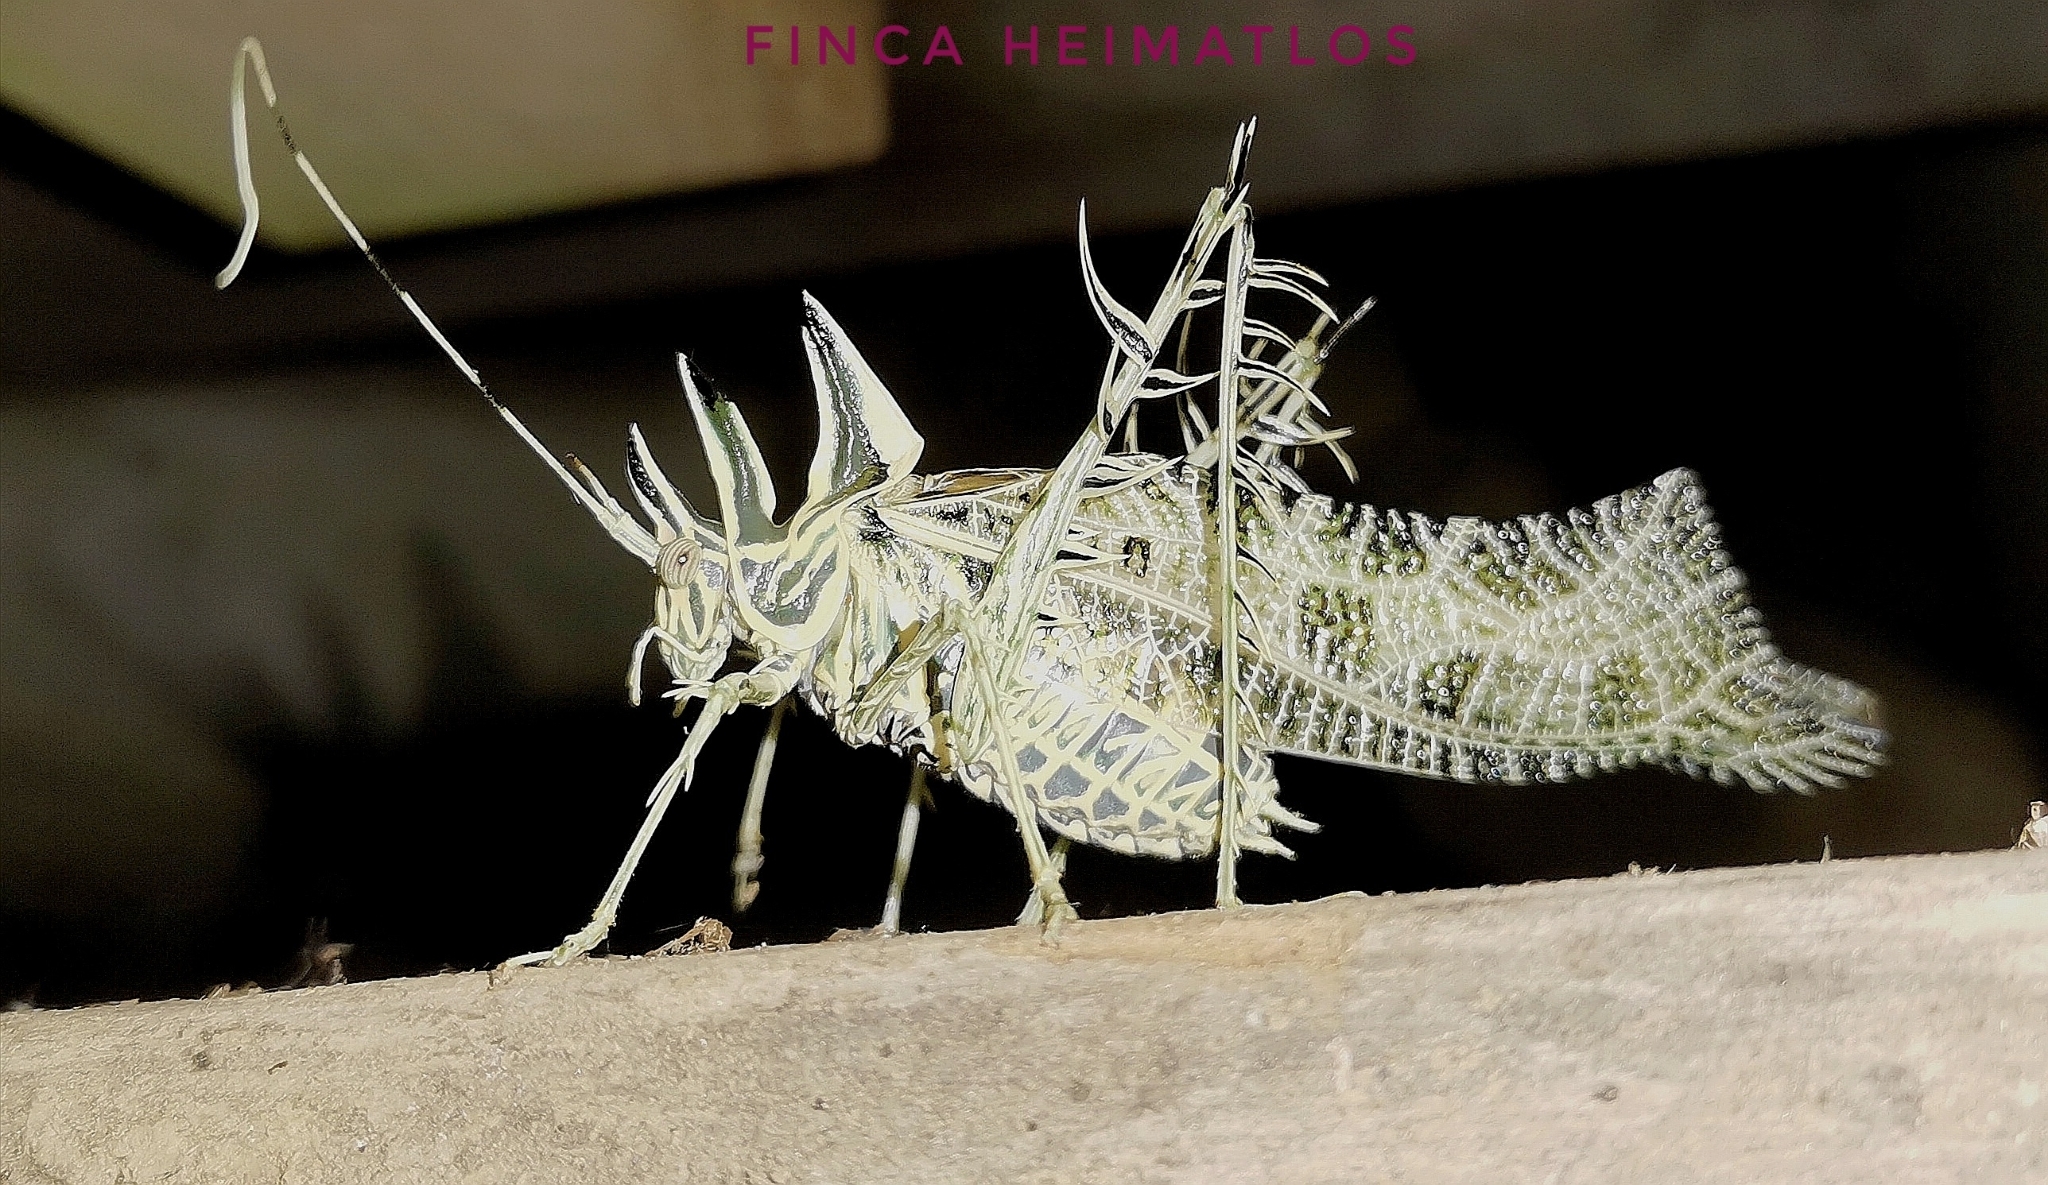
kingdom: Animalia
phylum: Arthropoda
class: Insecta
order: Orthoptera
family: Tettigoniidae
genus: Markia
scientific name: Markia arizae
